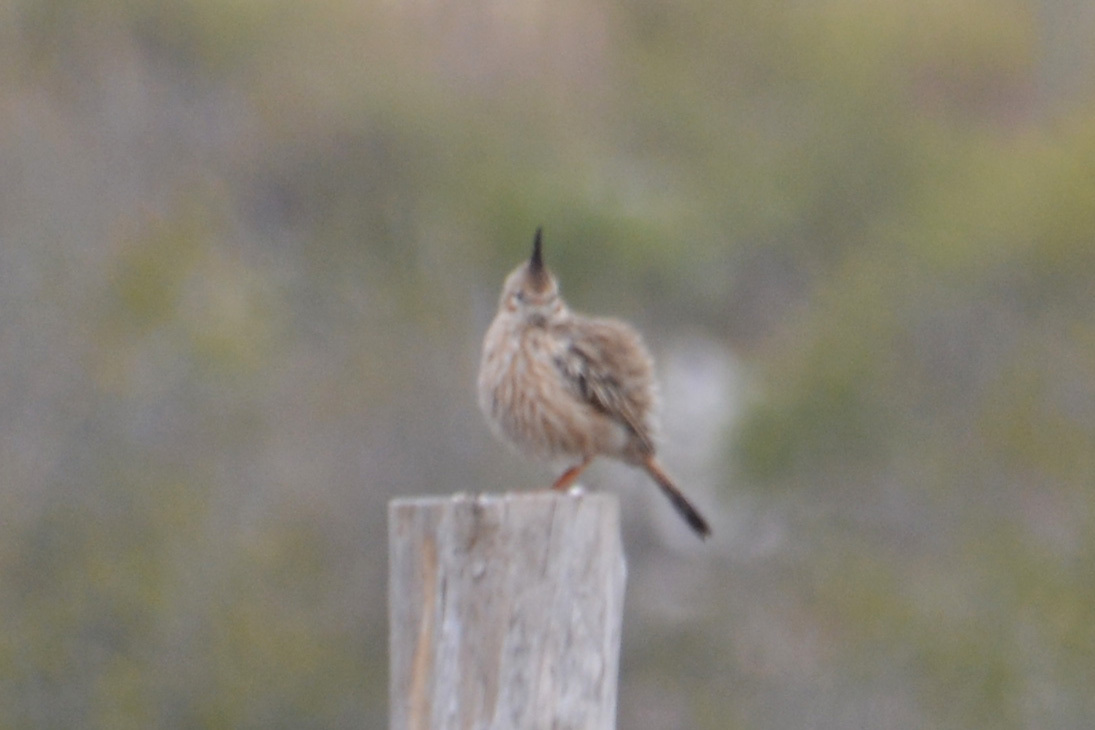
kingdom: Animalia
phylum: Chordata
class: Aves
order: Passeriformes
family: Furnariidae
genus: Coryphistera
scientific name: Coryphistera alaudina
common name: Lark-like brushrunner
